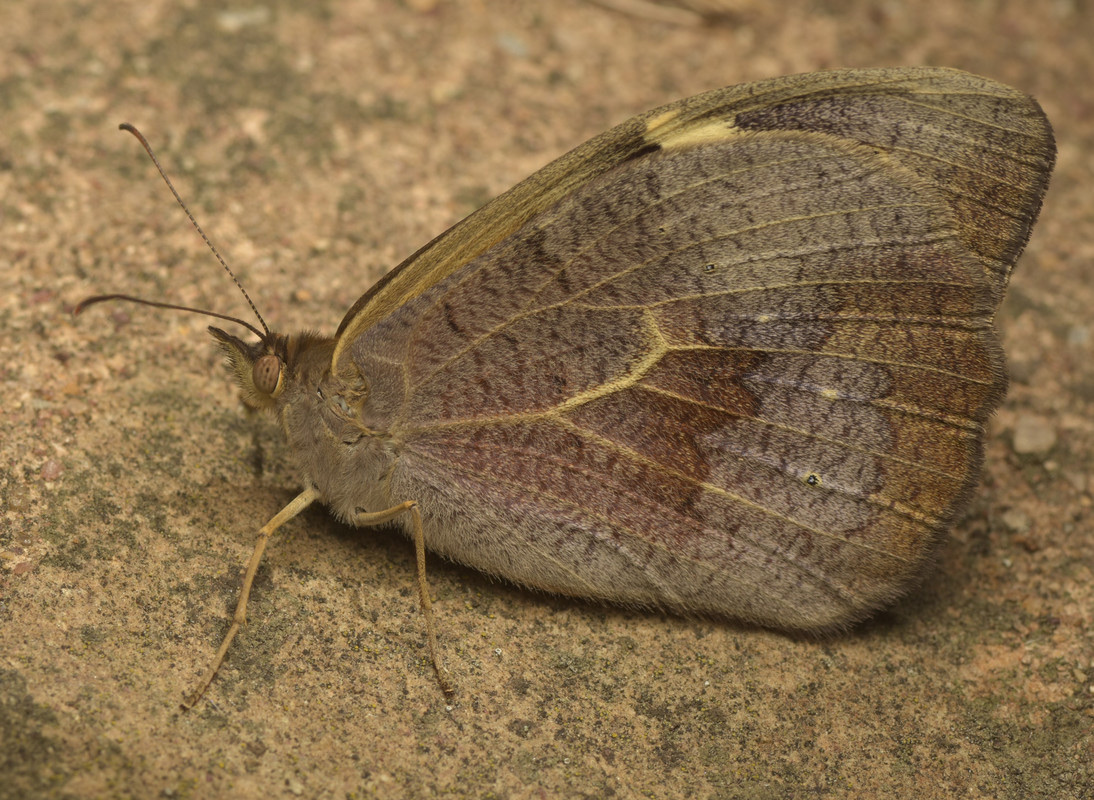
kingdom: Animalia
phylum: Arthropoda
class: Insecta
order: Lepidoptera
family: Nymphalidae
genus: Heteronympha
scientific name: Heteronympha merope
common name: Common brown
